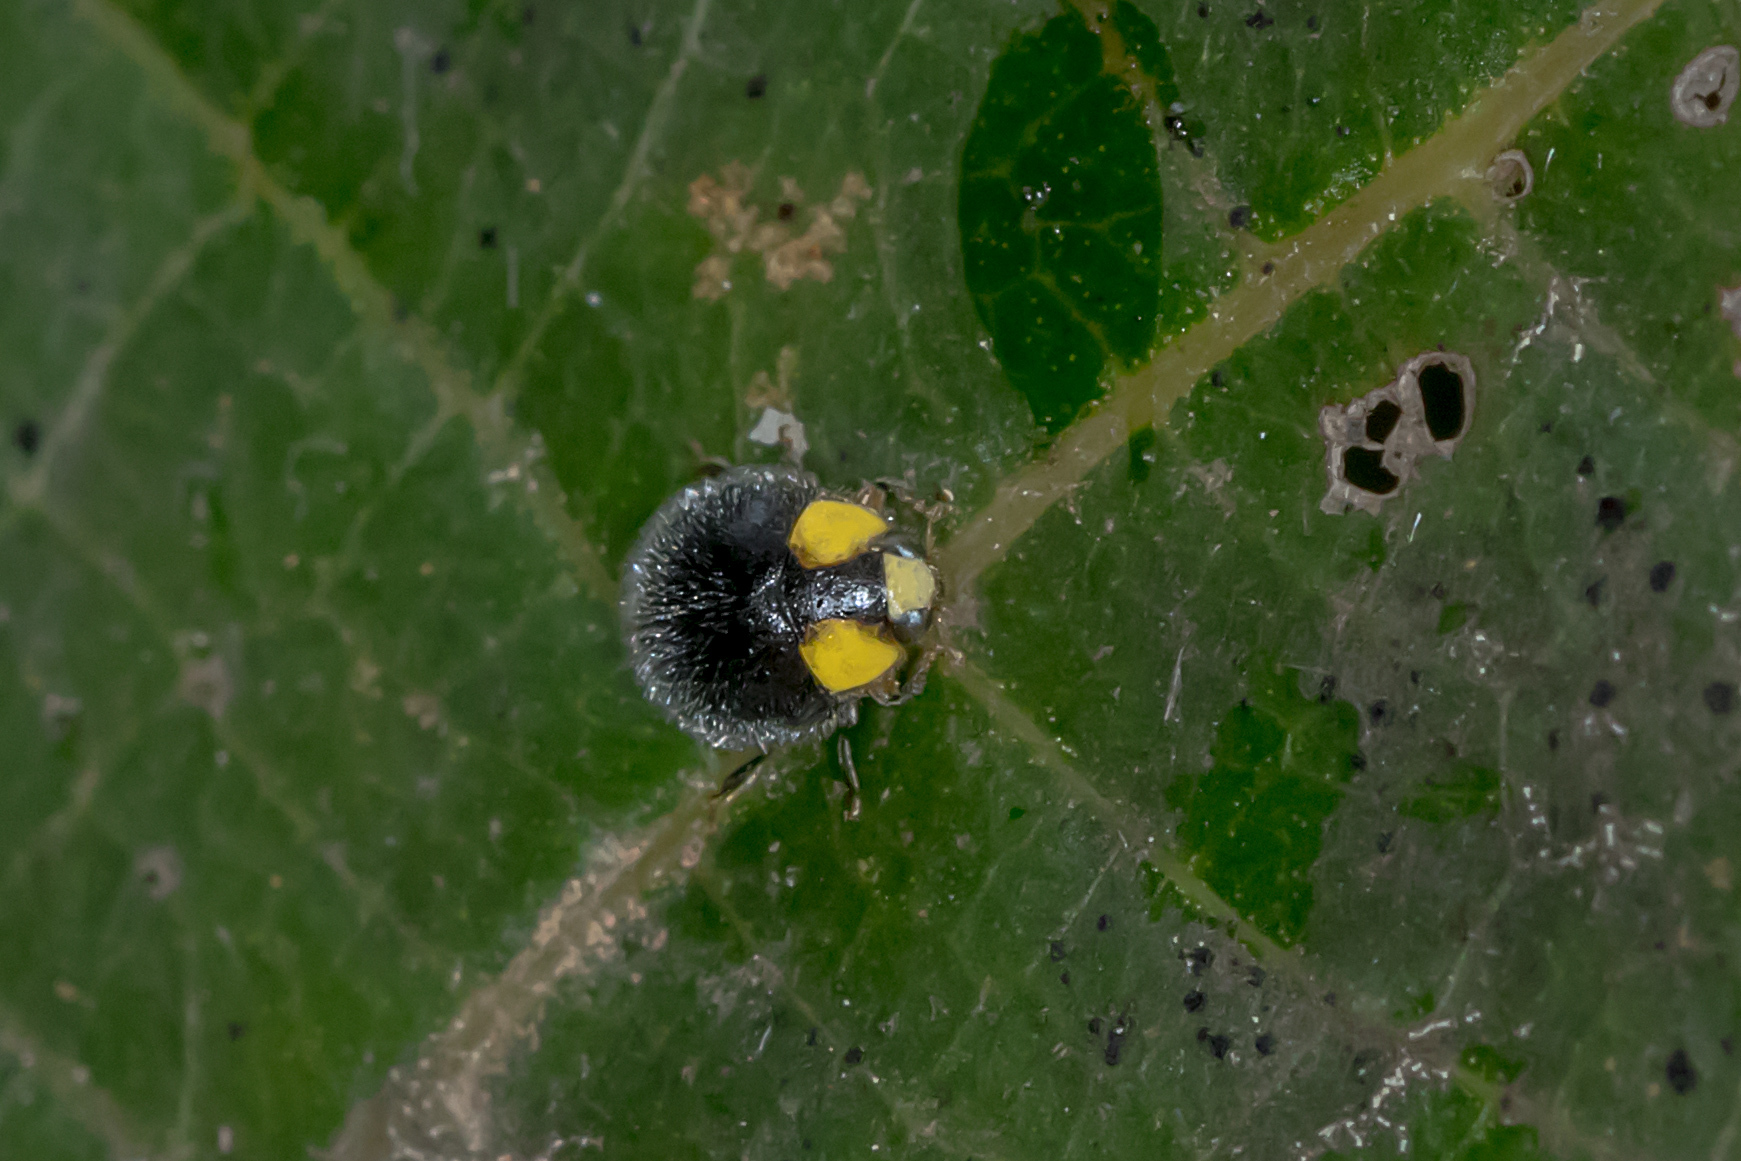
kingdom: Animalia
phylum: Arthropoda
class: Insecta
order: Coleoptera
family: Coccinellidae
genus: Scymnodes
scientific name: Scymnodes lividigaster
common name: Yellowshouldered lady beetle
